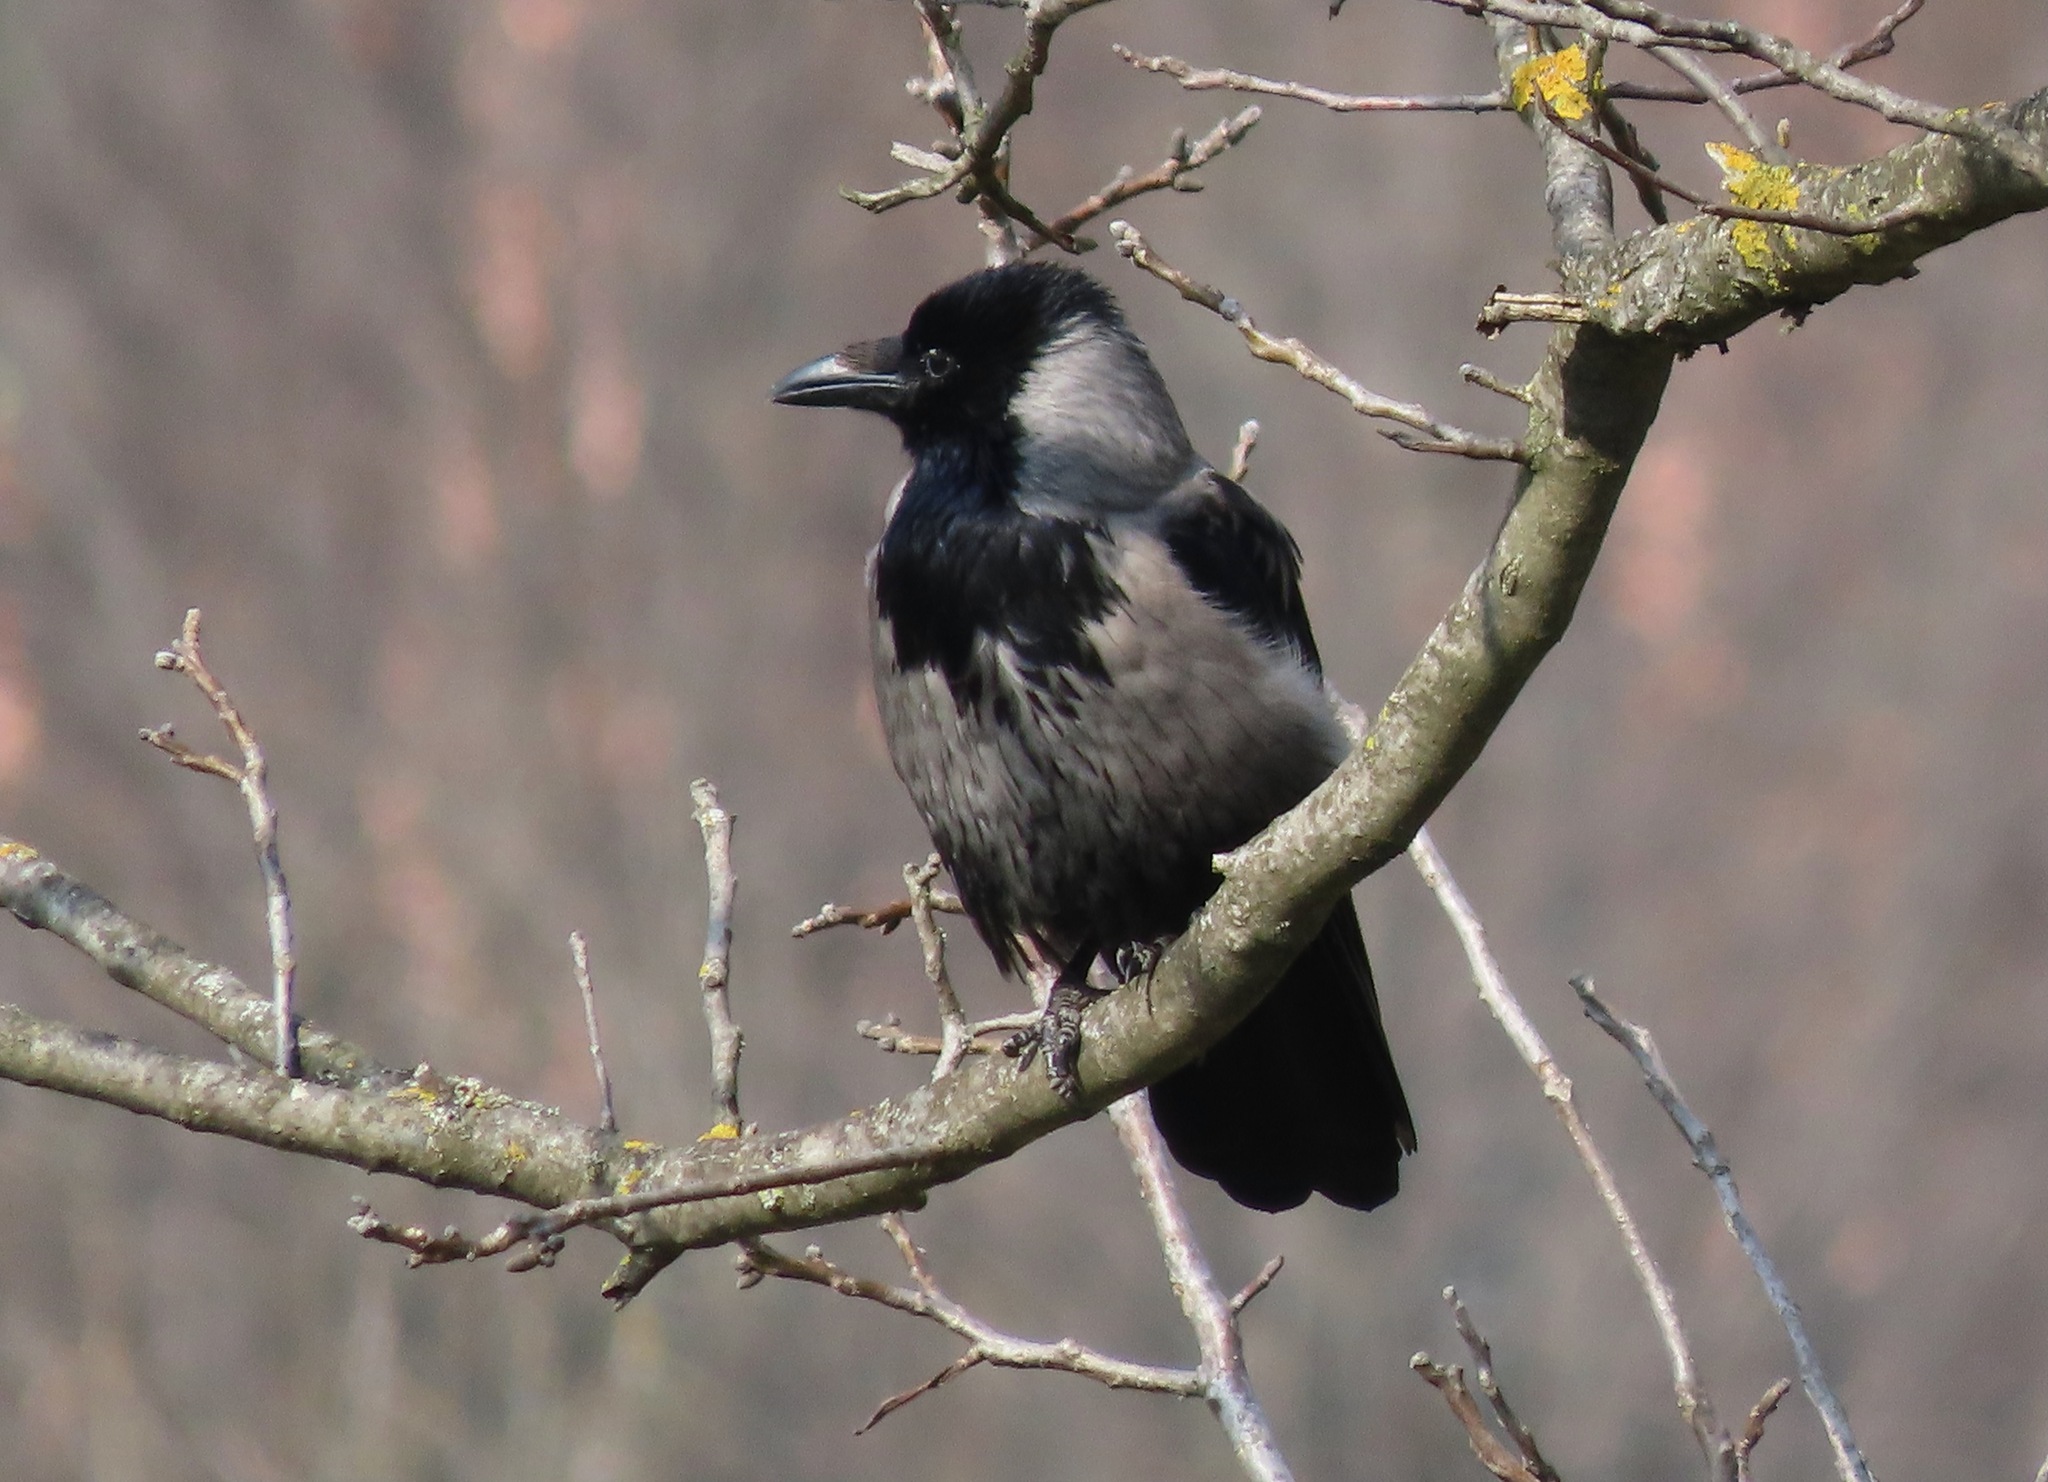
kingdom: Animalia
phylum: Chordata
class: Aves
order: Passeriformes
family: Corvidae
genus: Corvus
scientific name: Corvus
